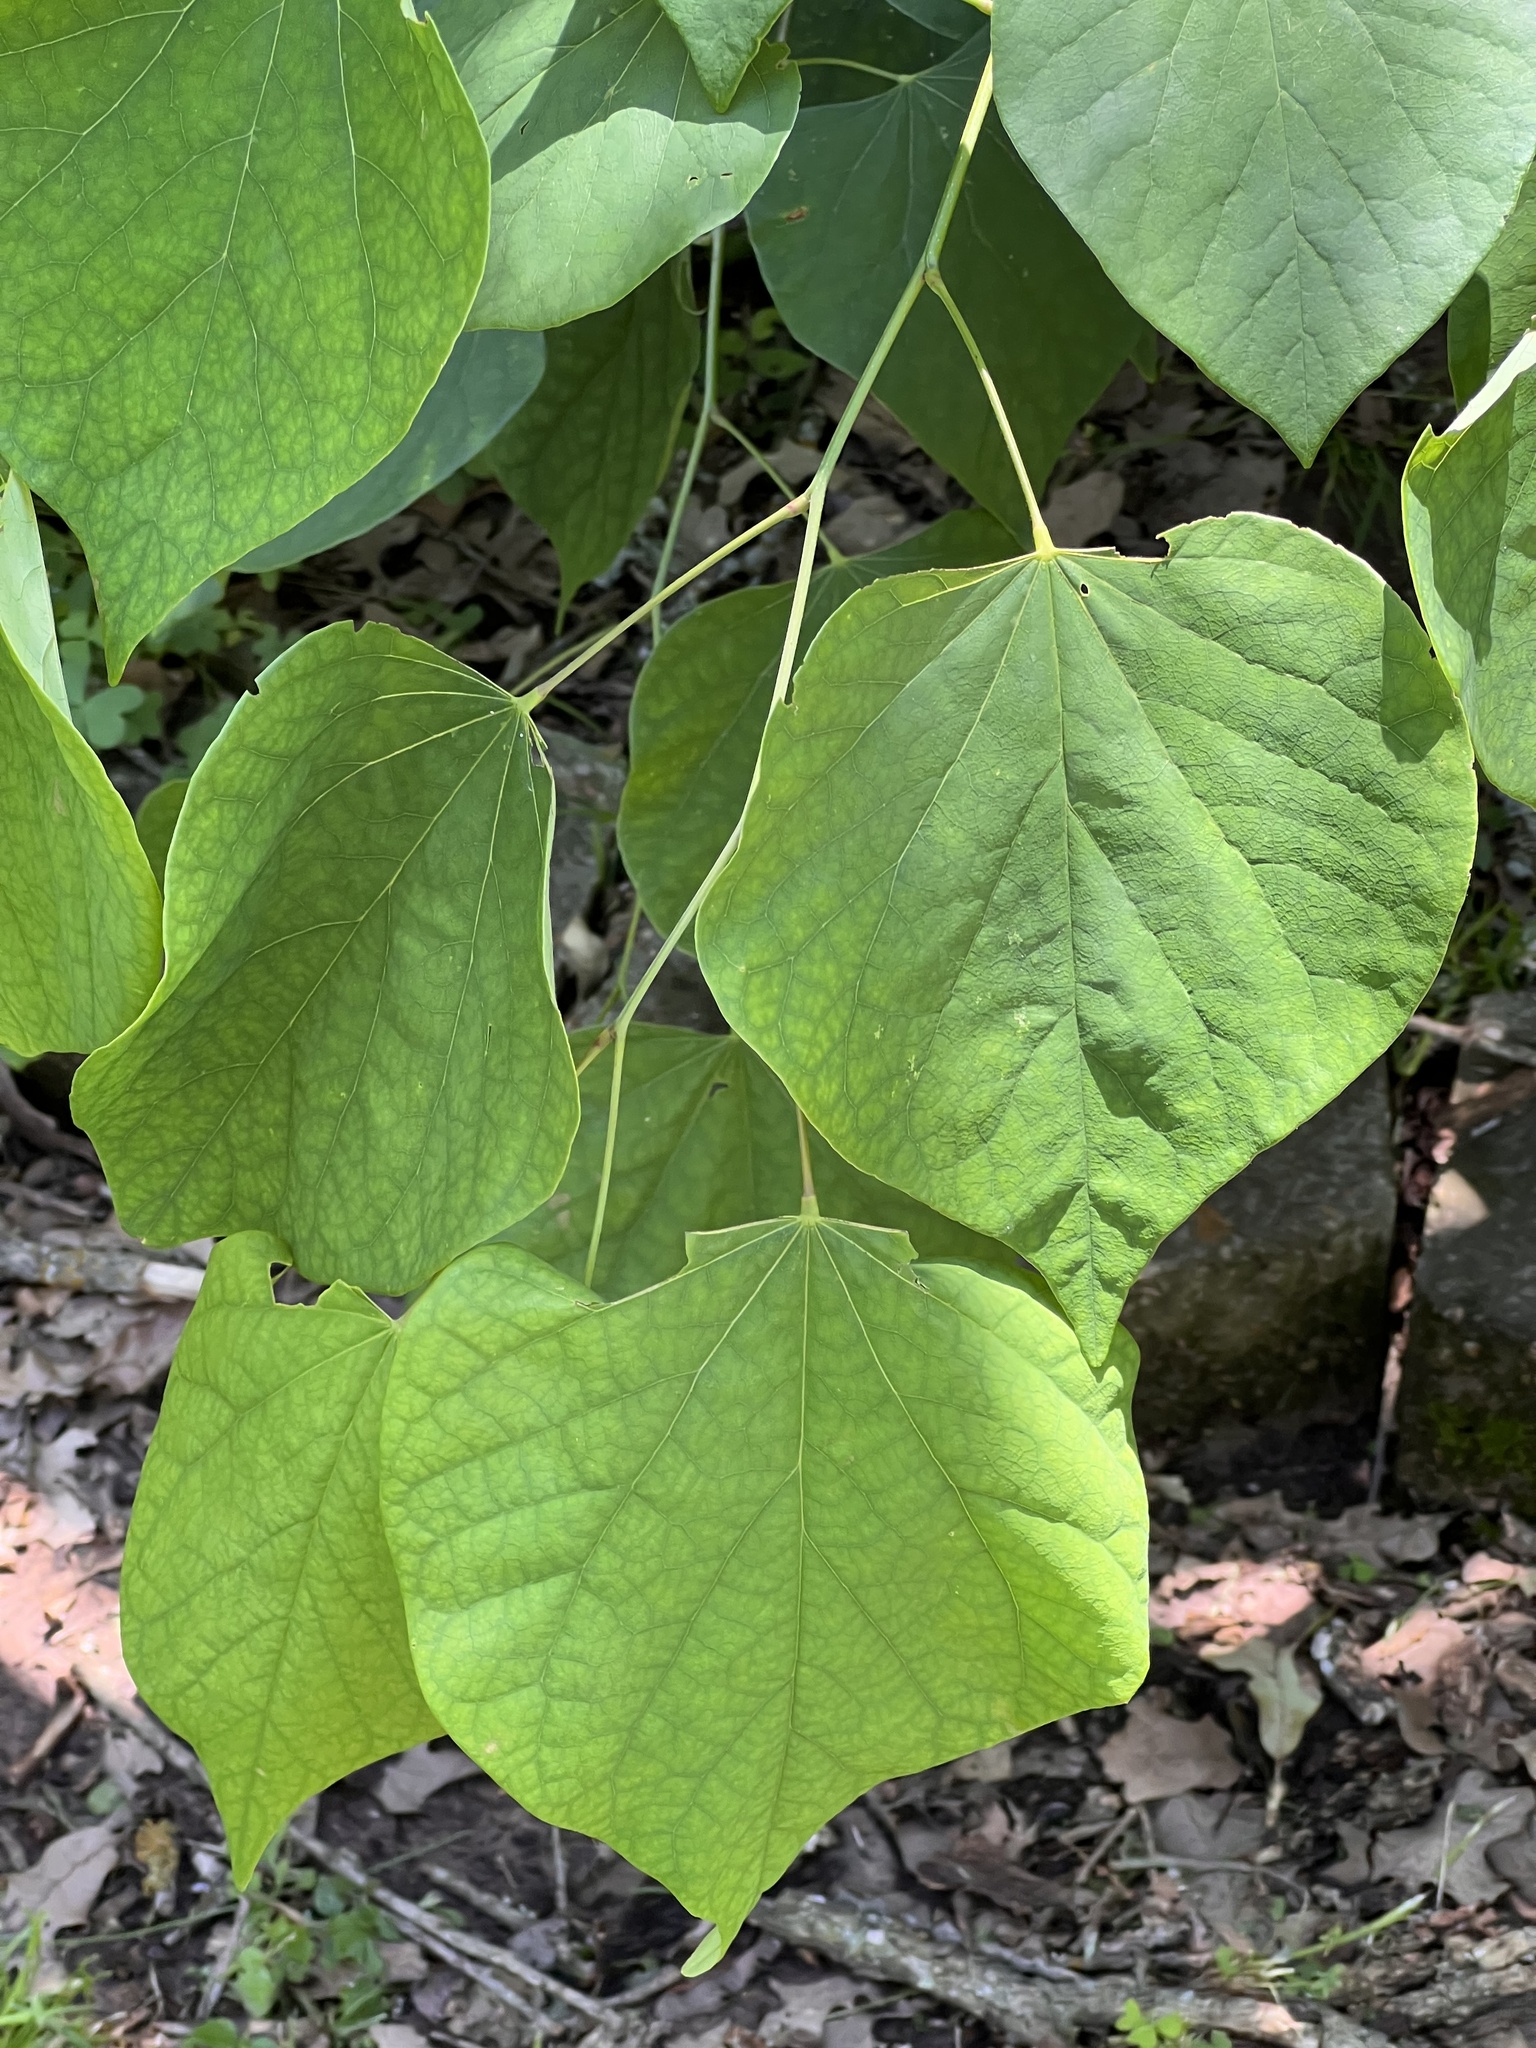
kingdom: Plantae
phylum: Tracheophyta
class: Magnoliopsida
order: Fabales
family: Fabaceae
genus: Cercis
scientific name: Cercis canadensis
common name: Eastern redbud
